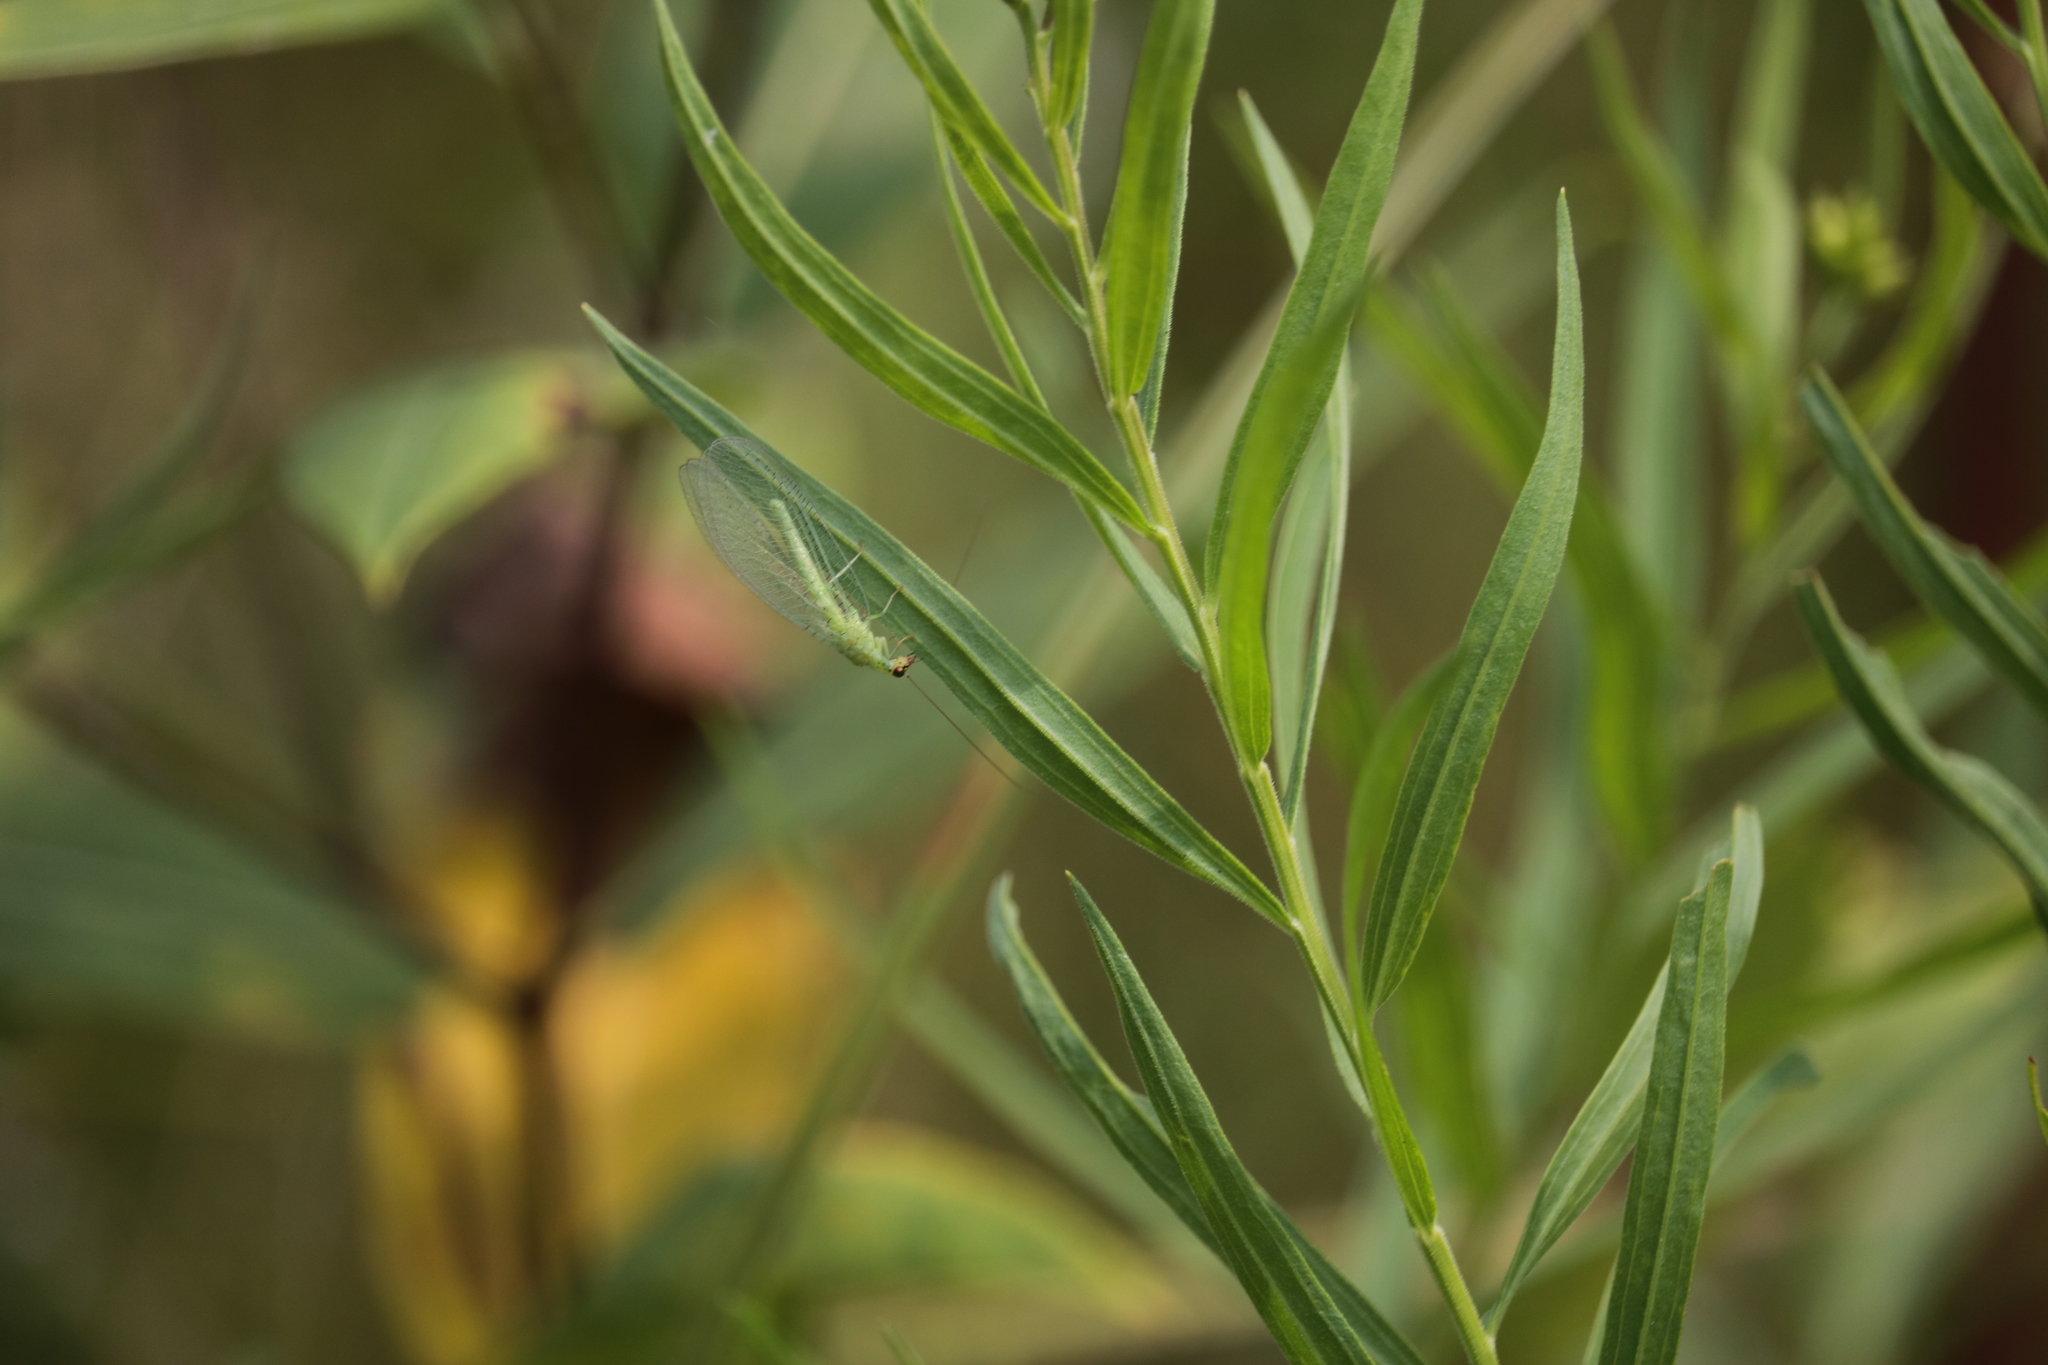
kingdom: Animalia
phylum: Arthropoda
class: Insecta
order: Neuroptera
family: Chrysopidae
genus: Chrysopa
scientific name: Chrysopa oculata
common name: Golden-eyed lacewing
